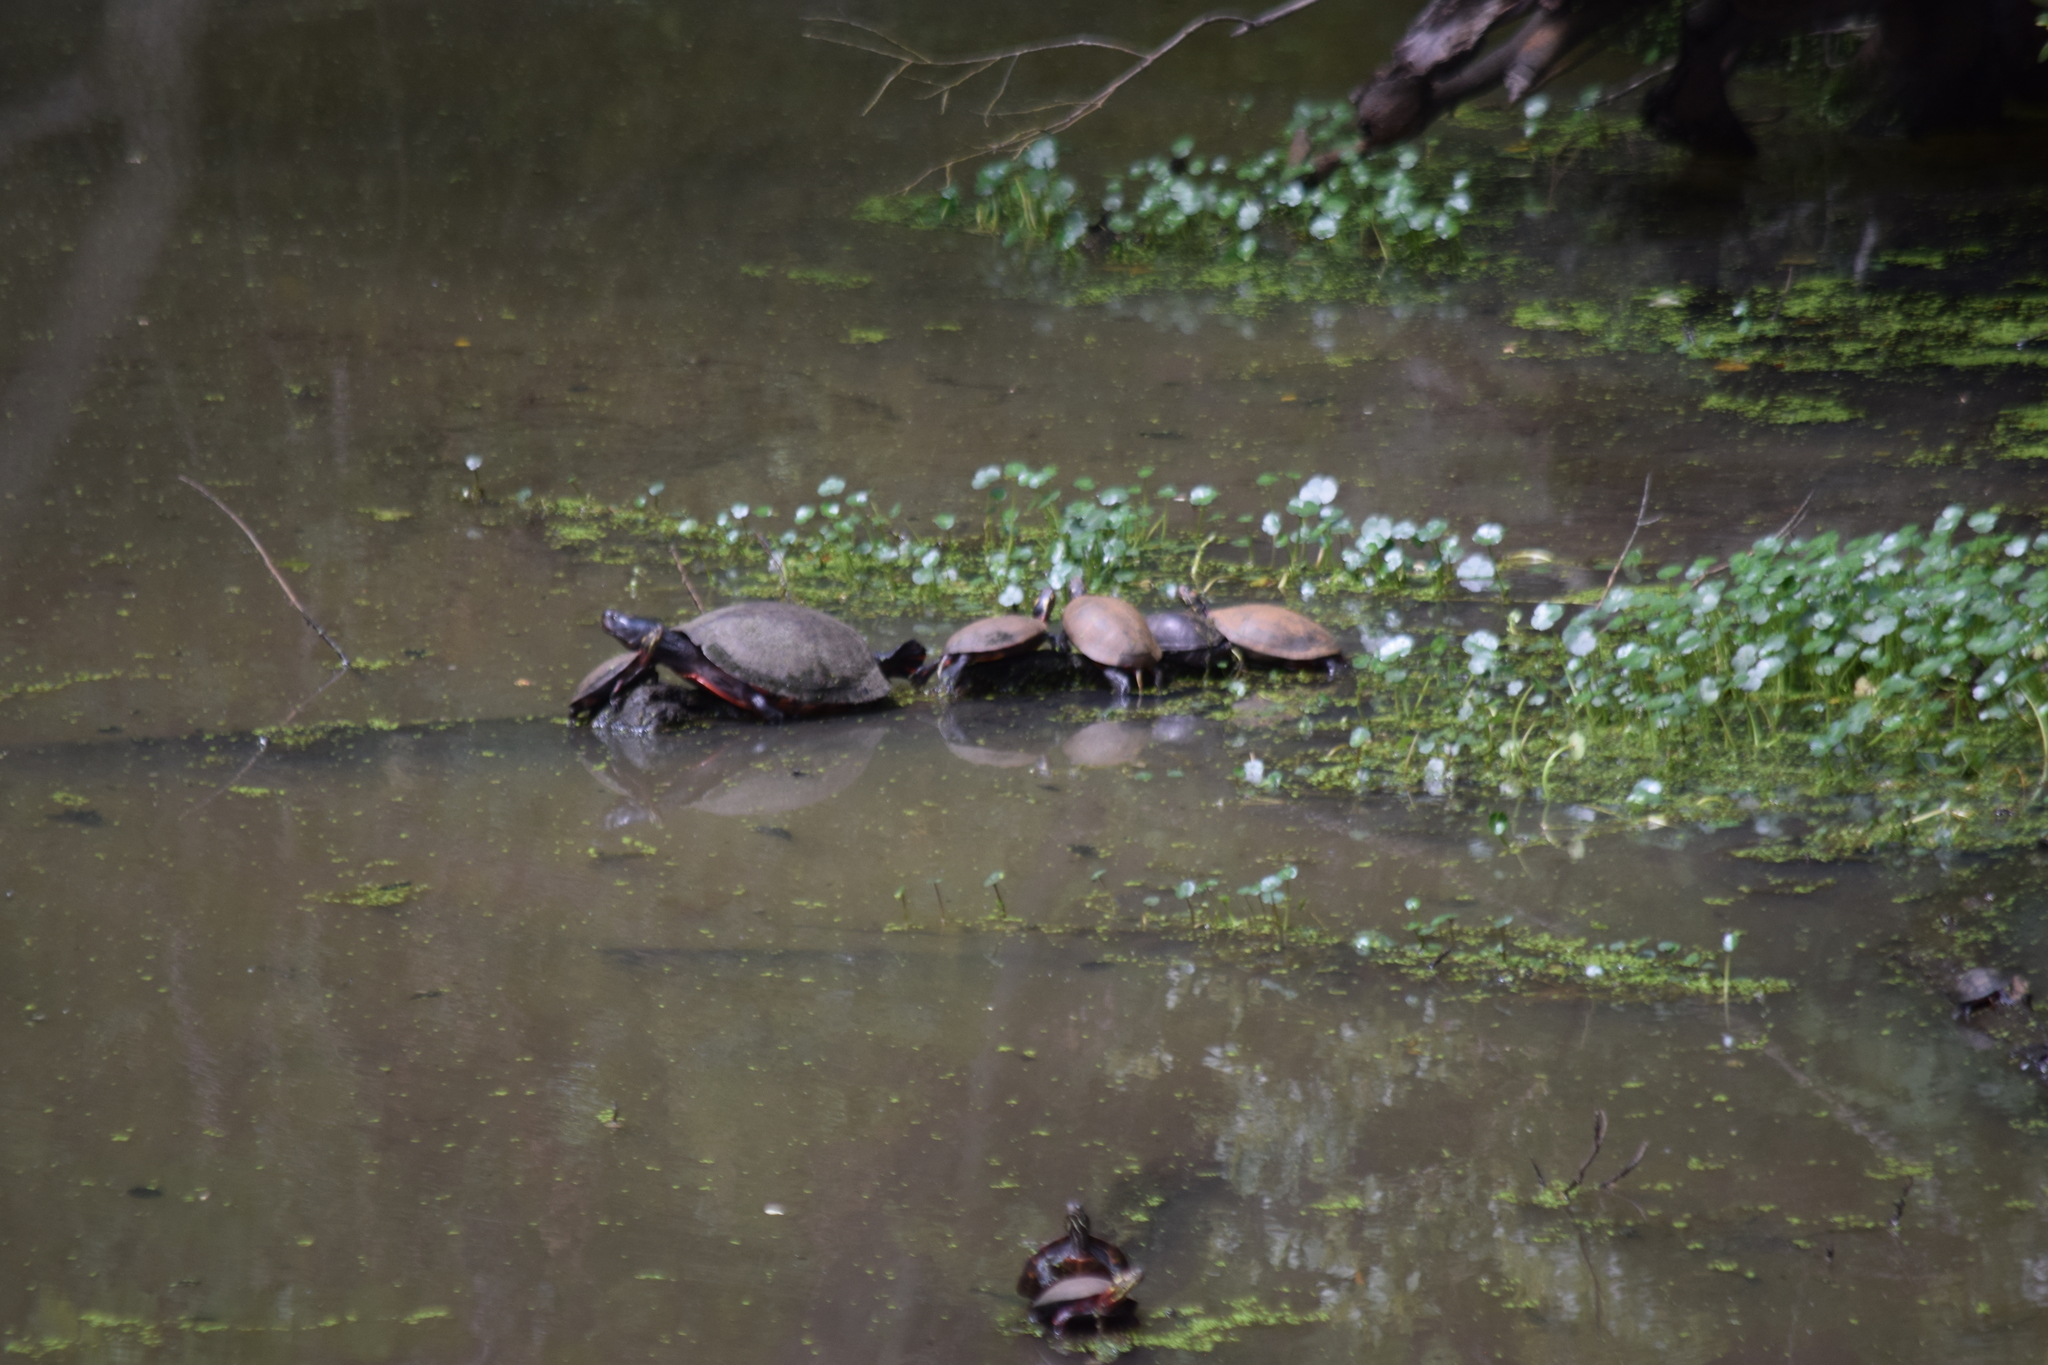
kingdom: Animalia
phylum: Chordata
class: Testudines
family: Emydidae
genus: Chrysemys
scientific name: Chrysemys picta
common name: Painted turtle
